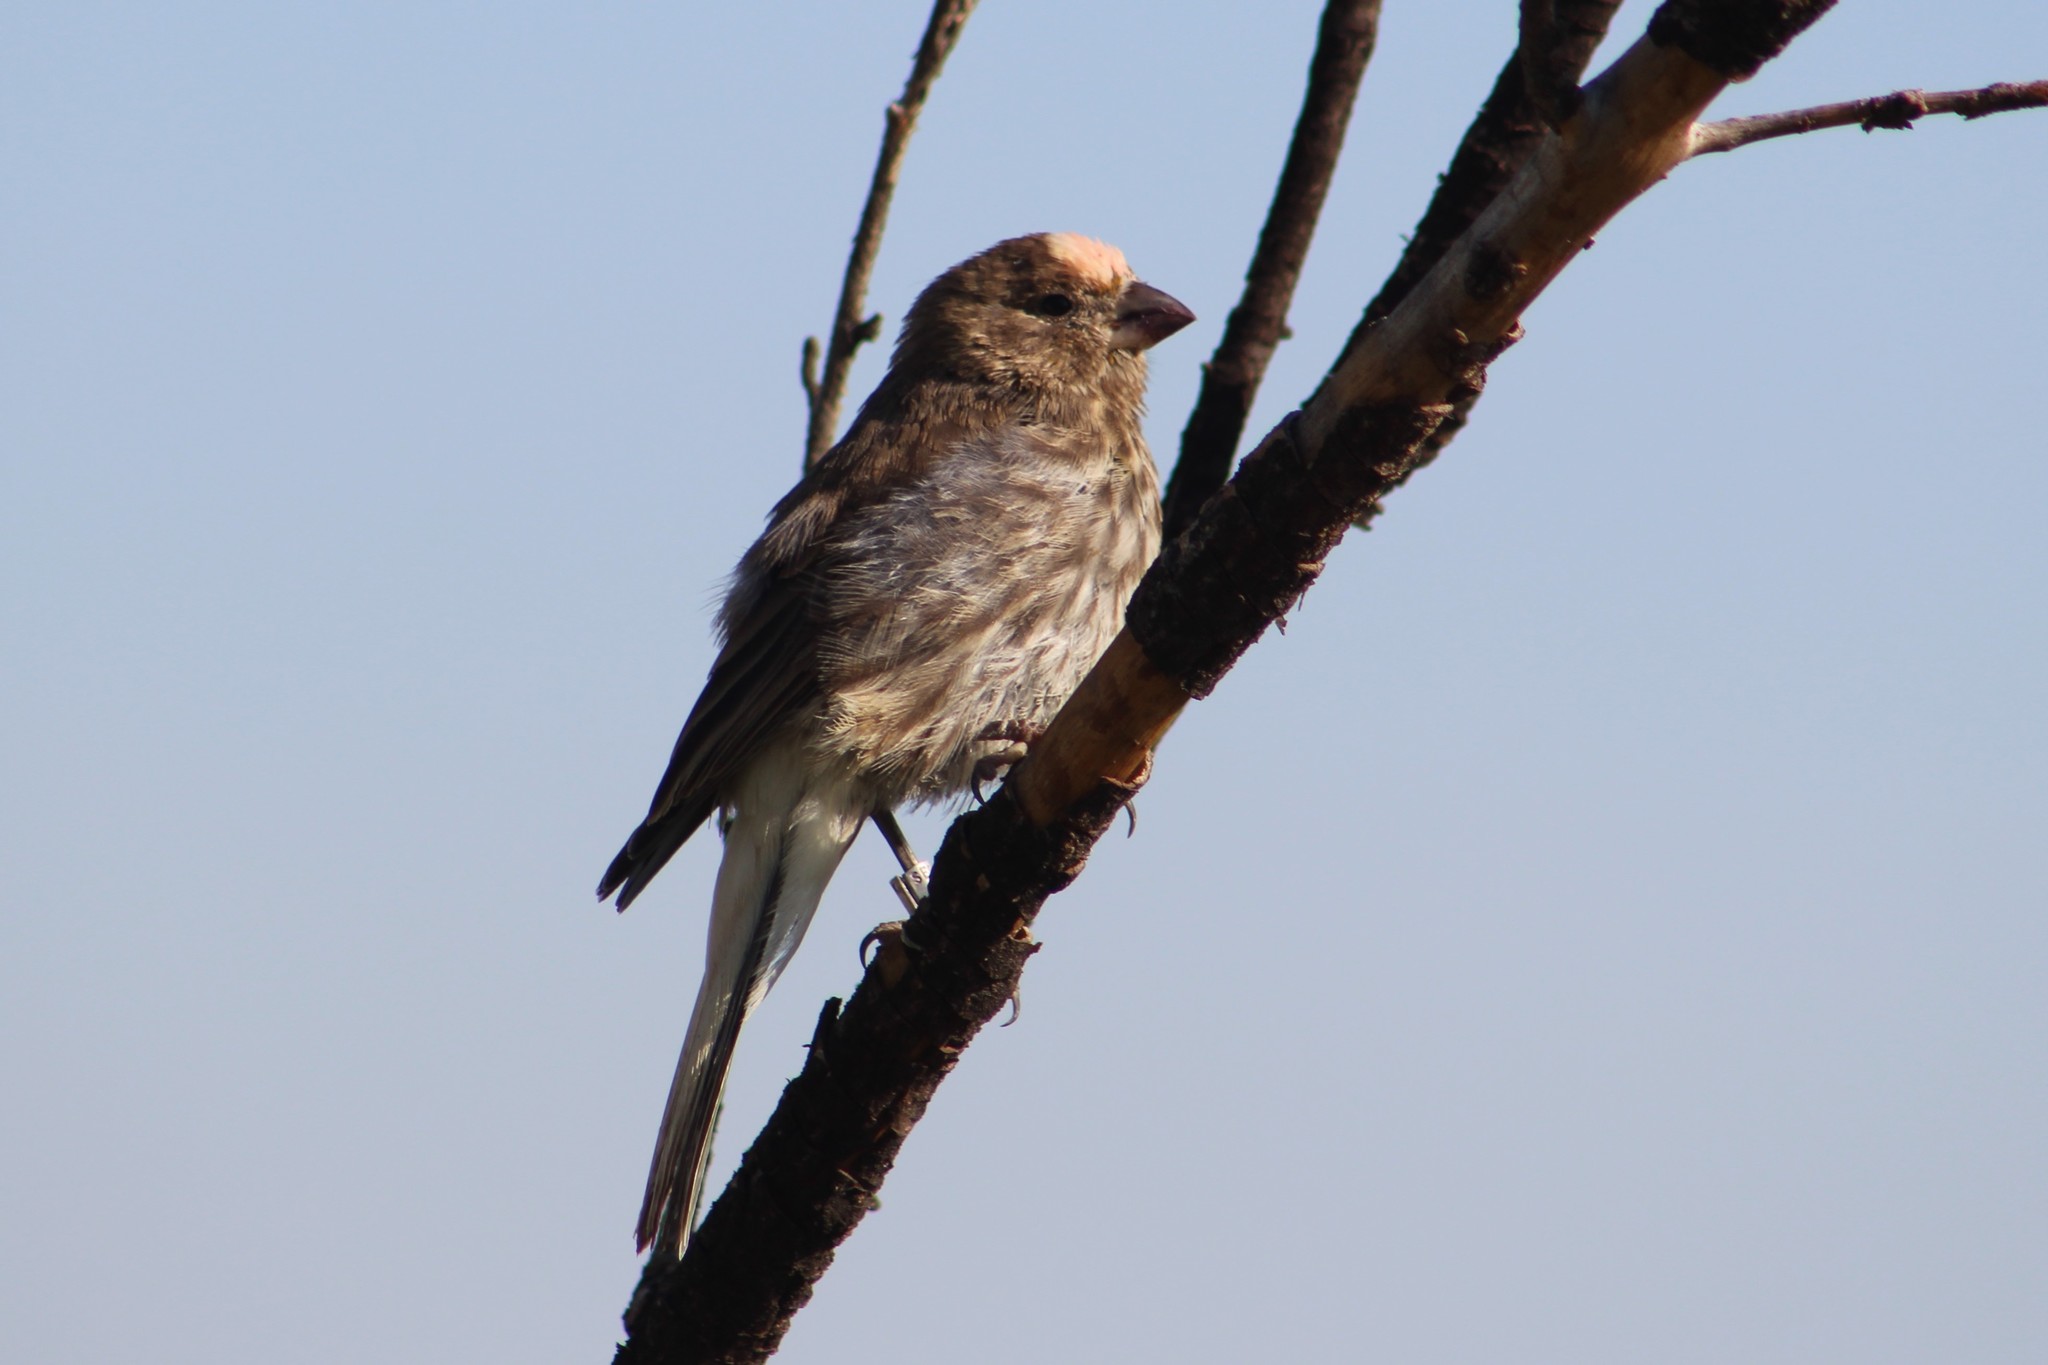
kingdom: Animalia
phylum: Chordata
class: Aves
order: Passeriformes
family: Fringillidae
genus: Haemorhous
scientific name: Haemorhous mexicanus
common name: House finch
